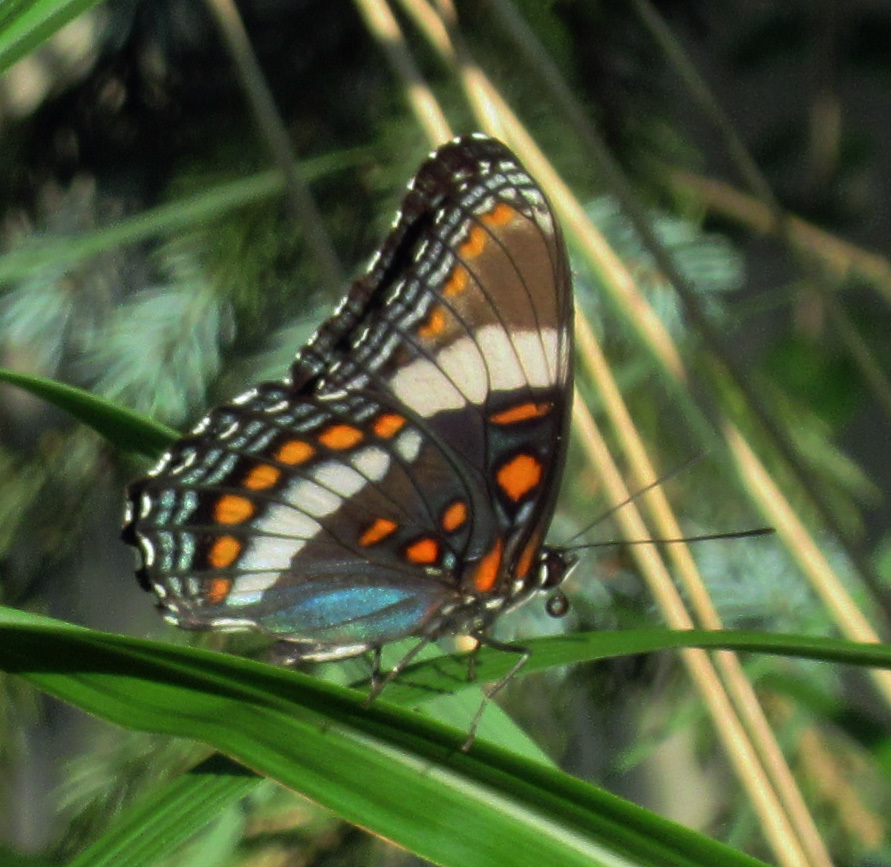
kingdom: Animalia
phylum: Arthropoda
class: Insecta
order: Lepidoptera
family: Nymphalidae
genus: Limenitis
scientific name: Limenitis arthemis
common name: Red-spotted admiral
